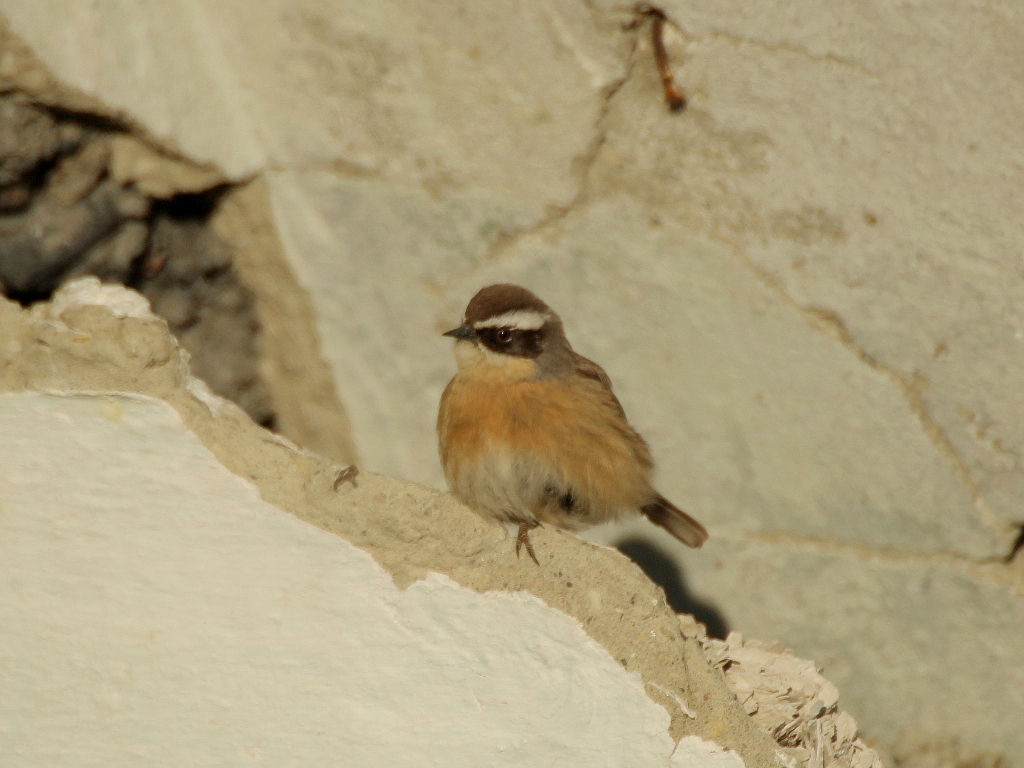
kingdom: Animalia
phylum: Chordata
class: Aves
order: Passeriformes
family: Prunellidae
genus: Prunella
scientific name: Prunella fulvescens
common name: Brown accentor
